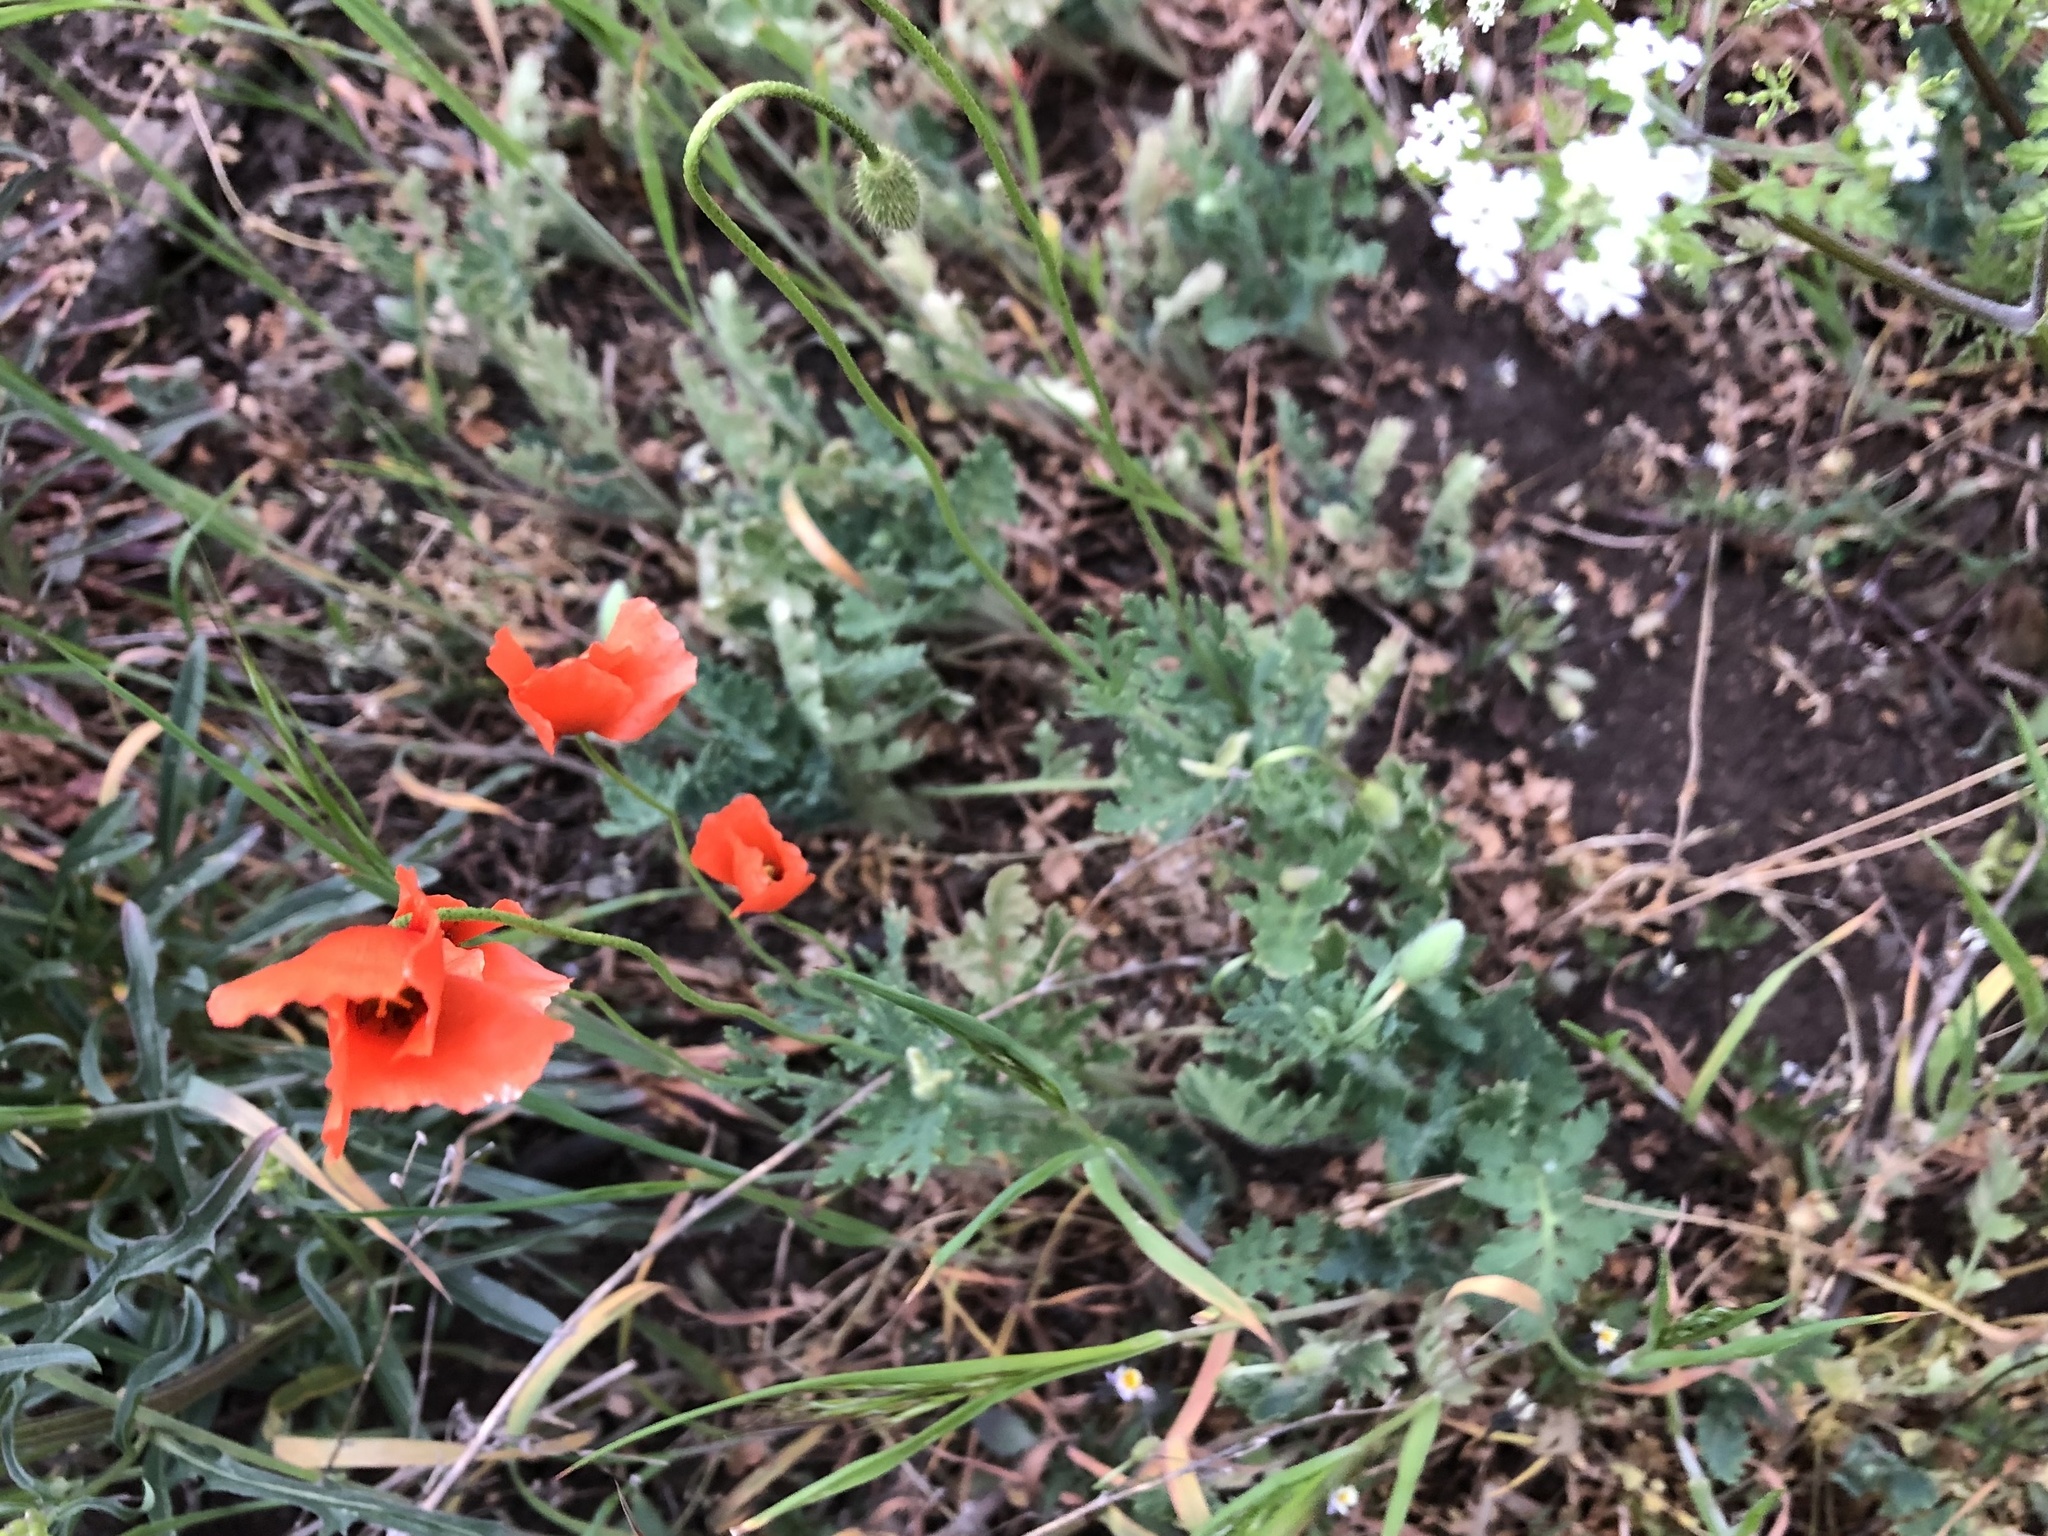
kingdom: Plantae
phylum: Tracheophyta
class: Magnoliopsida
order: Ranunculales
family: Papaveraceae
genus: Papaver
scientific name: Papaver dubium
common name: Long-headed poppy
